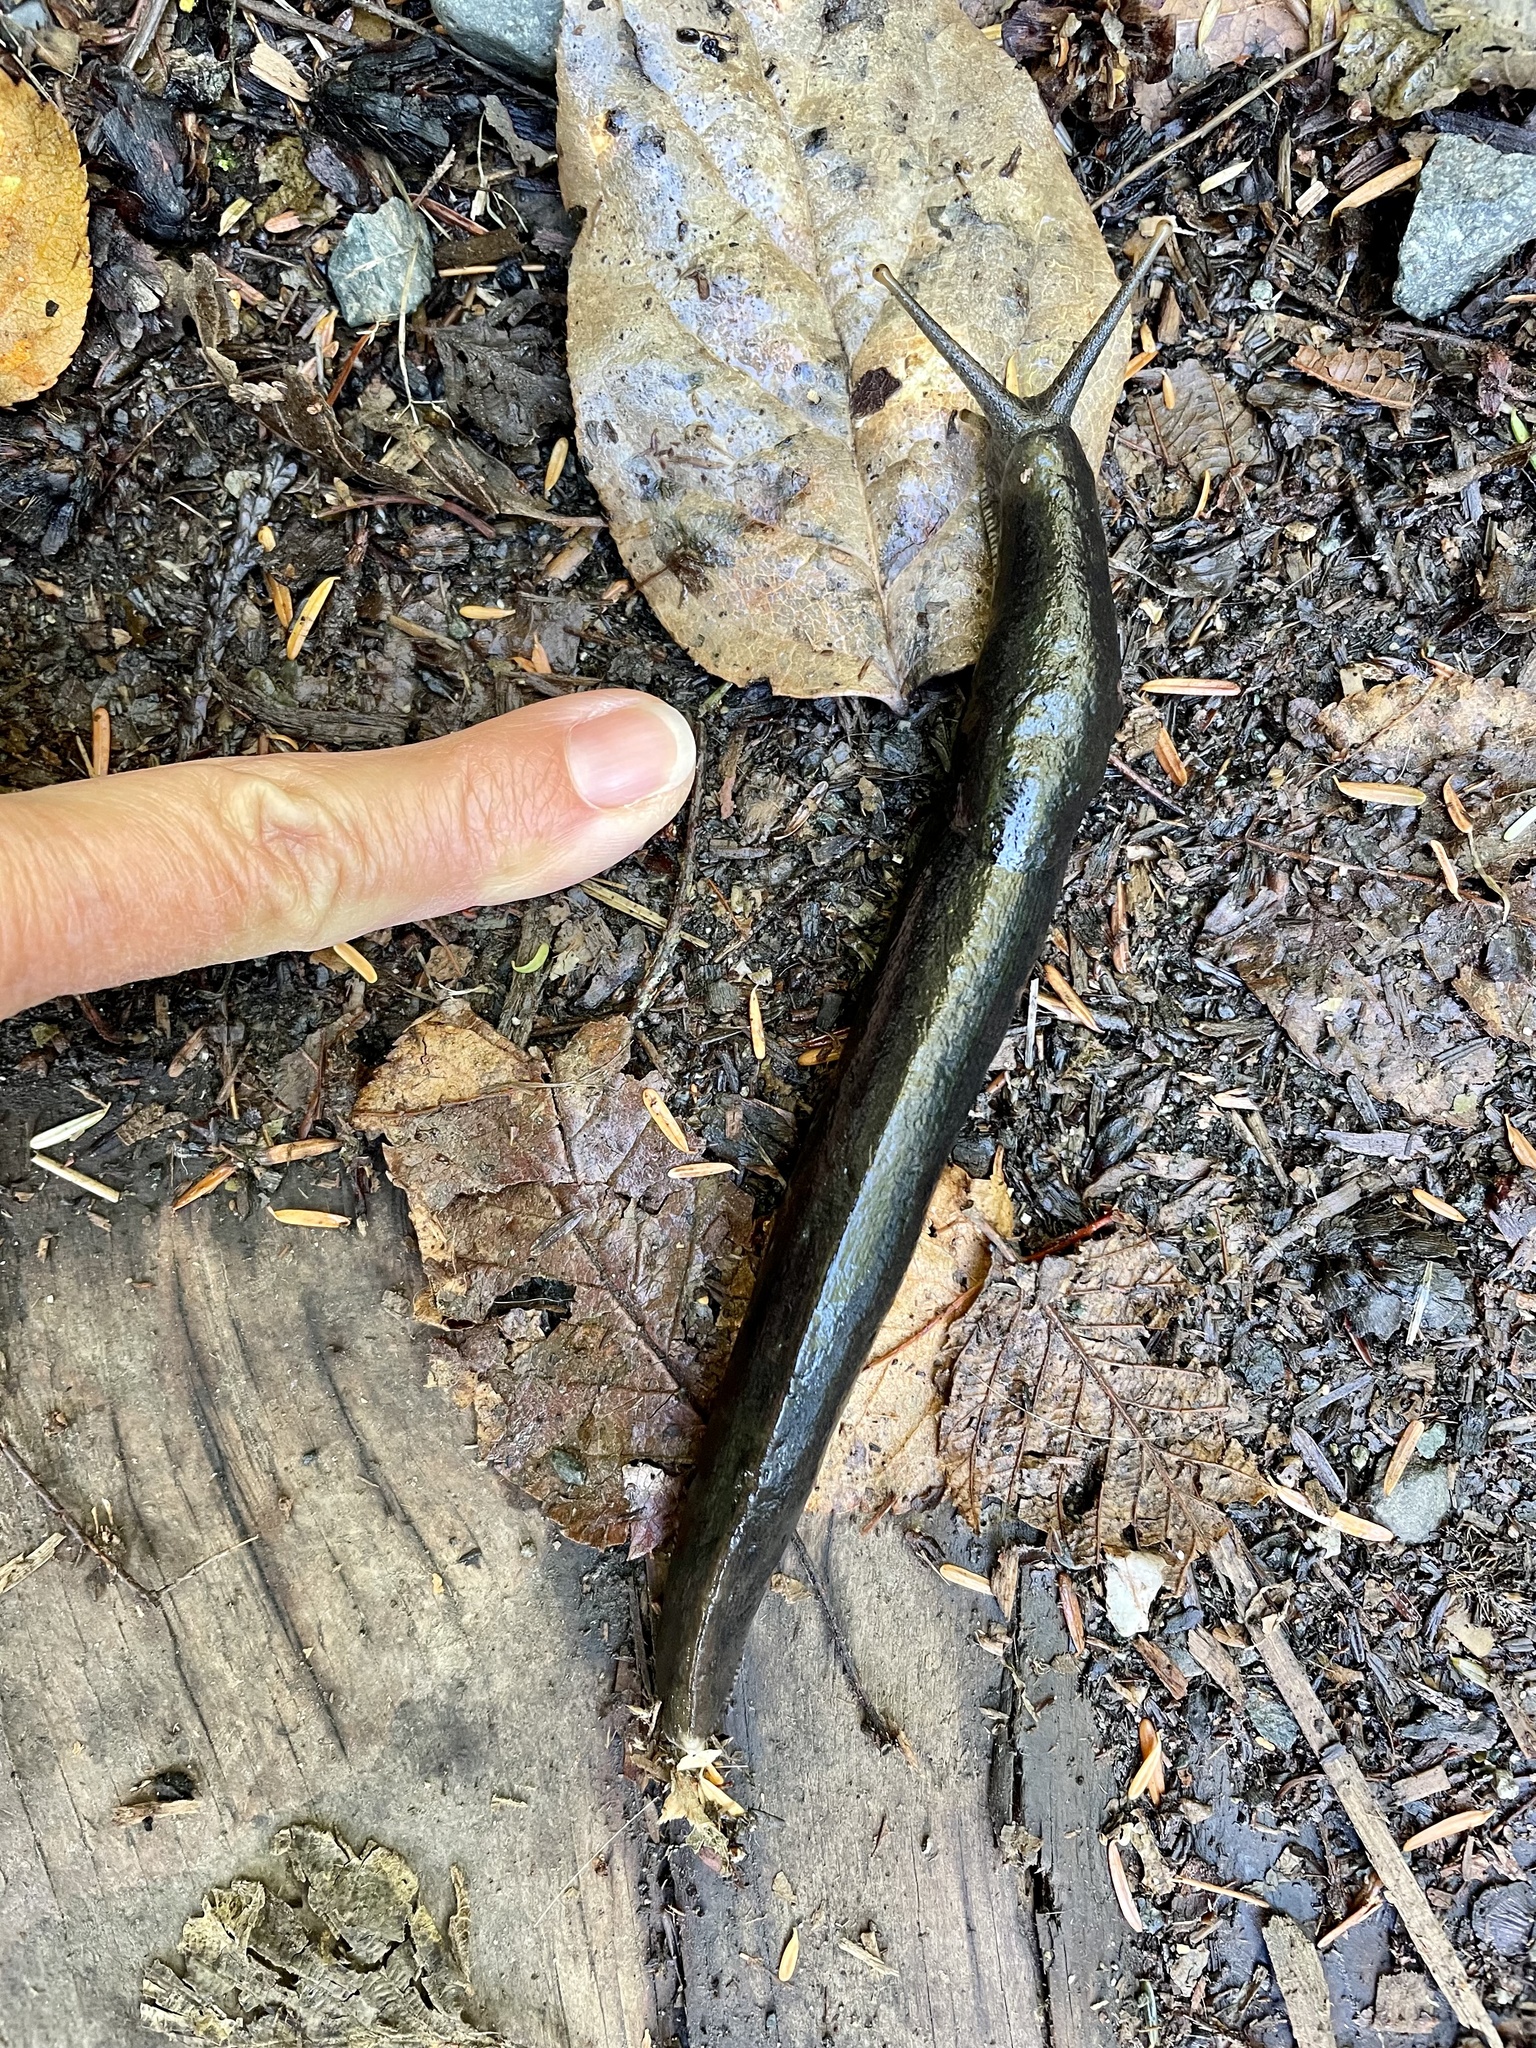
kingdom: Animalia
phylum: Mollusca
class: Gastropoda
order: Stylommatophora
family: Ariolimacidae
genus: Ariolimax
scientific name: Ariolimax columbianus
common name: Pacific banana slug
